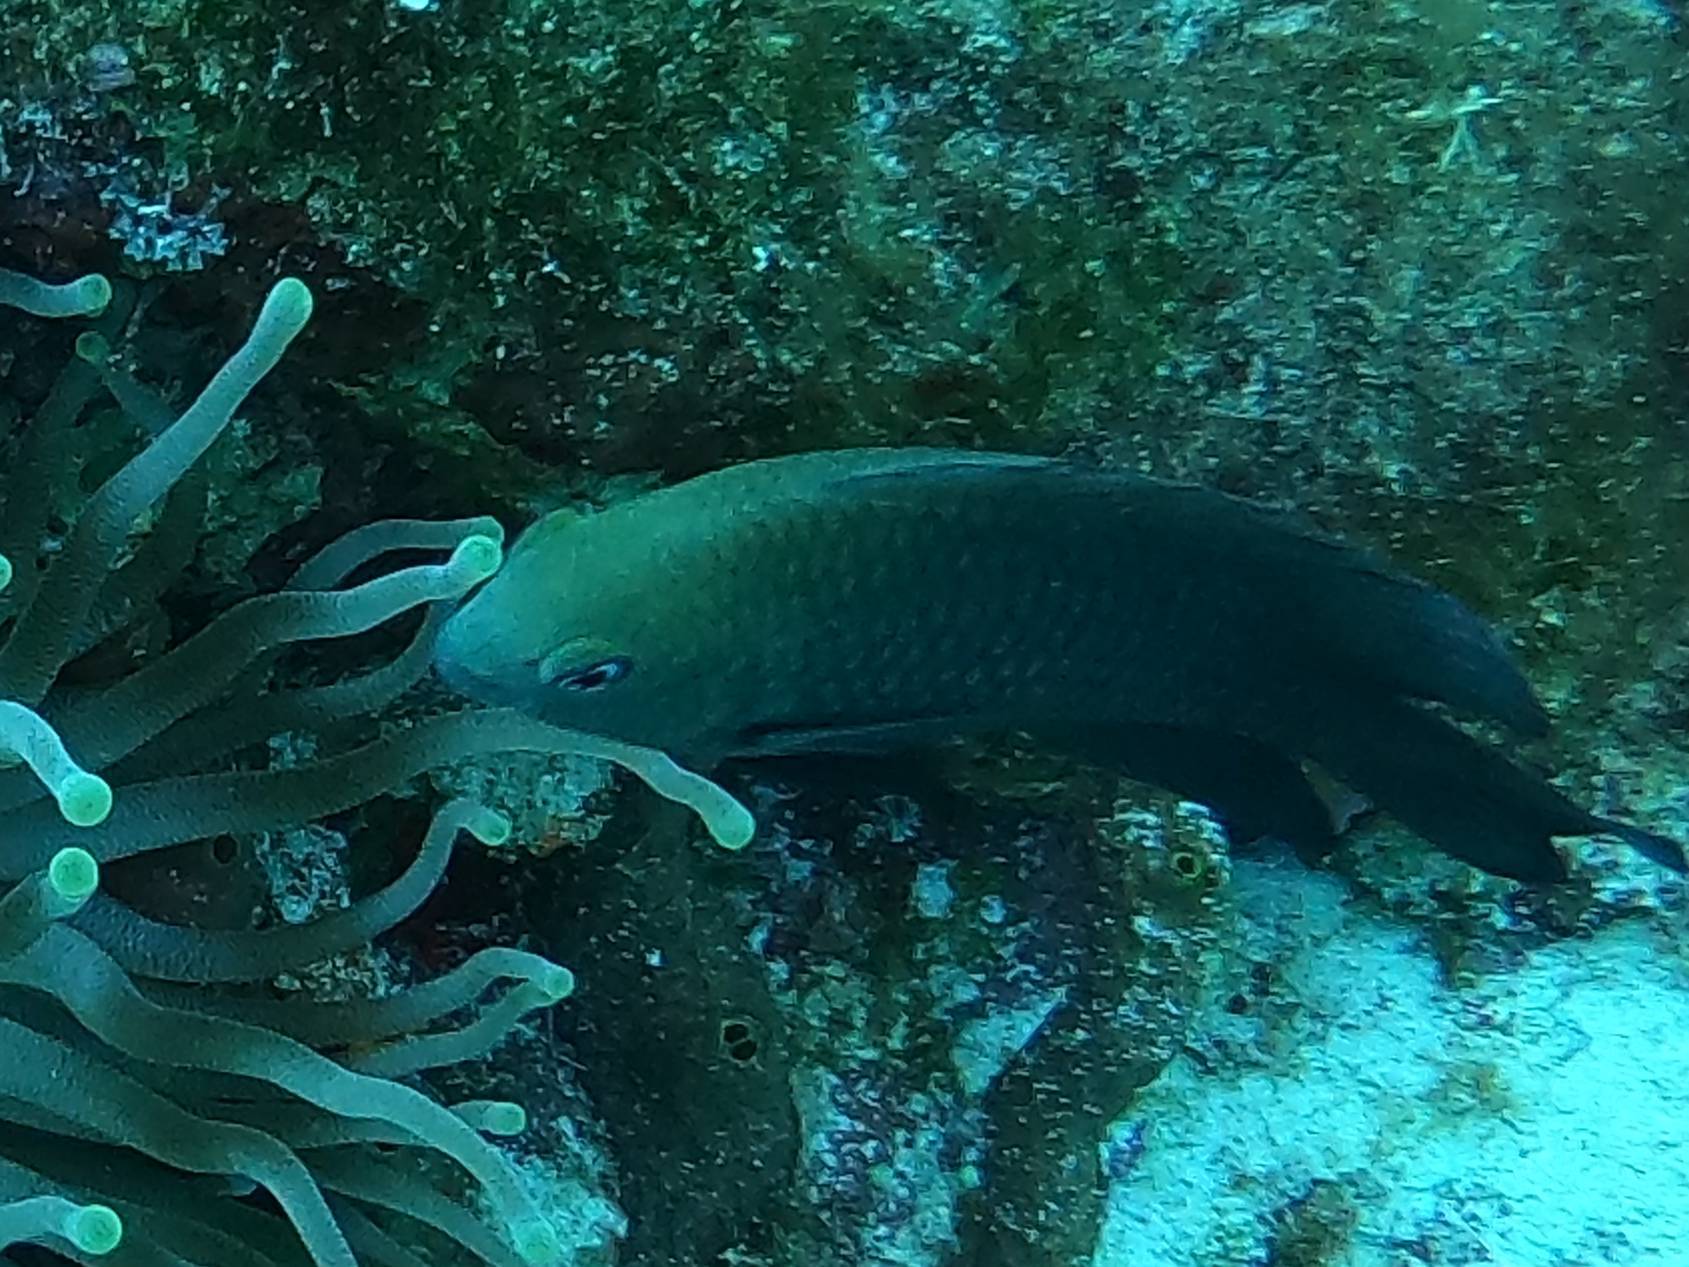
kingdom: Animalia
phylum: Chordata
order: Perciformes
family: Pomacentridae
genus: Stegastes
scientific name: Stegastes diencaeus
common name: Longfin damselfish
